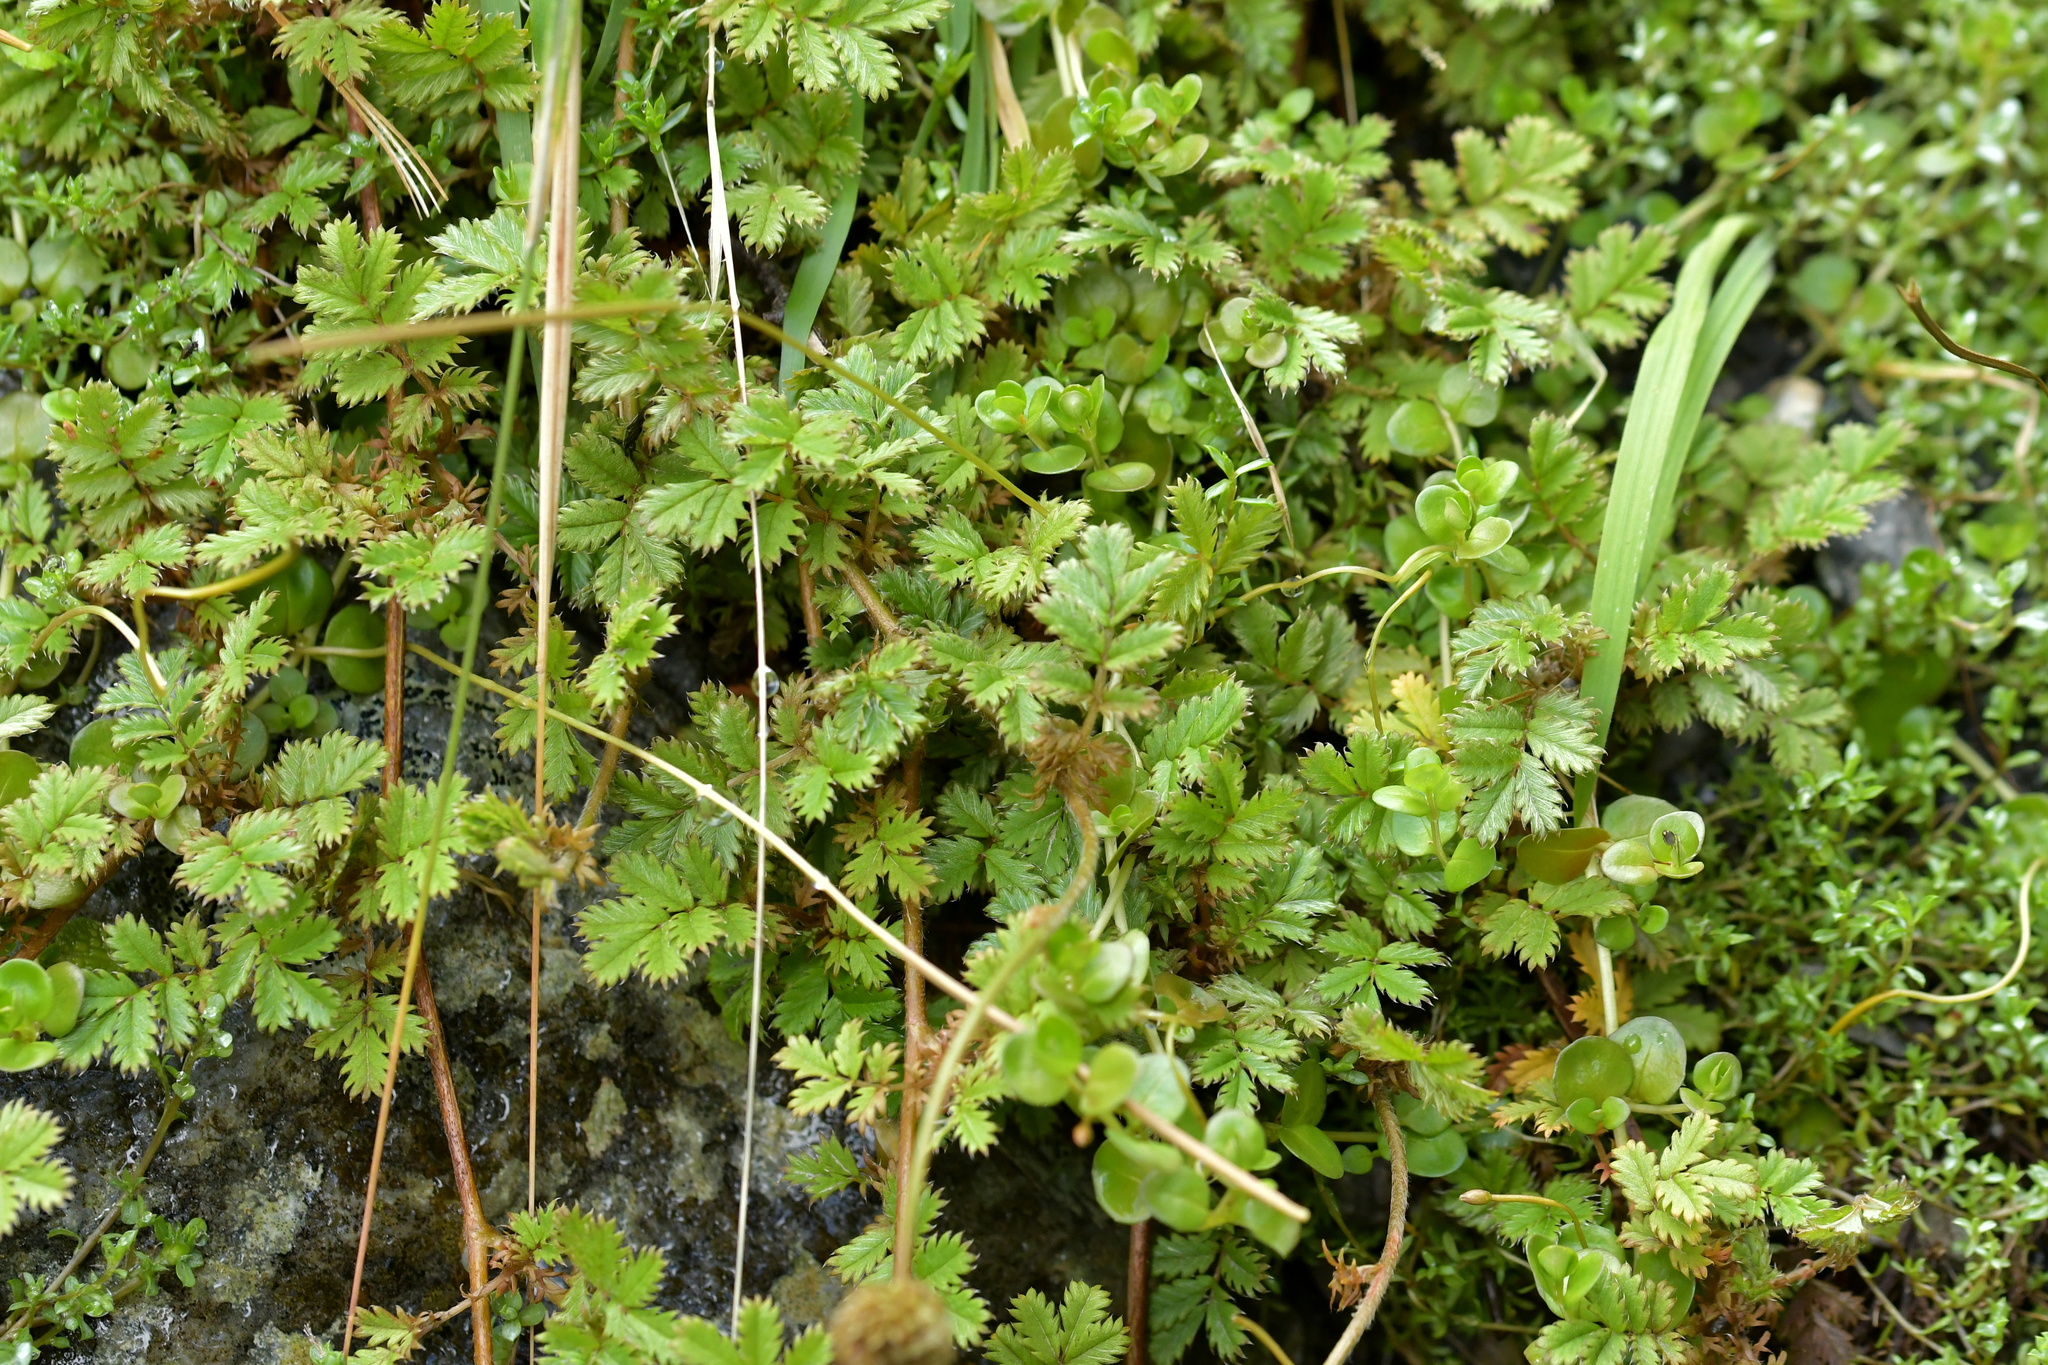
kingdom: Plantae
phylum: Tracheophyta
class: Magnoliopsida
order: Rosales
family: Rosaceae
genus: Acaena
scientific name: Acaena anserinifolia
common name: Bronze pirri-pirri-bur
